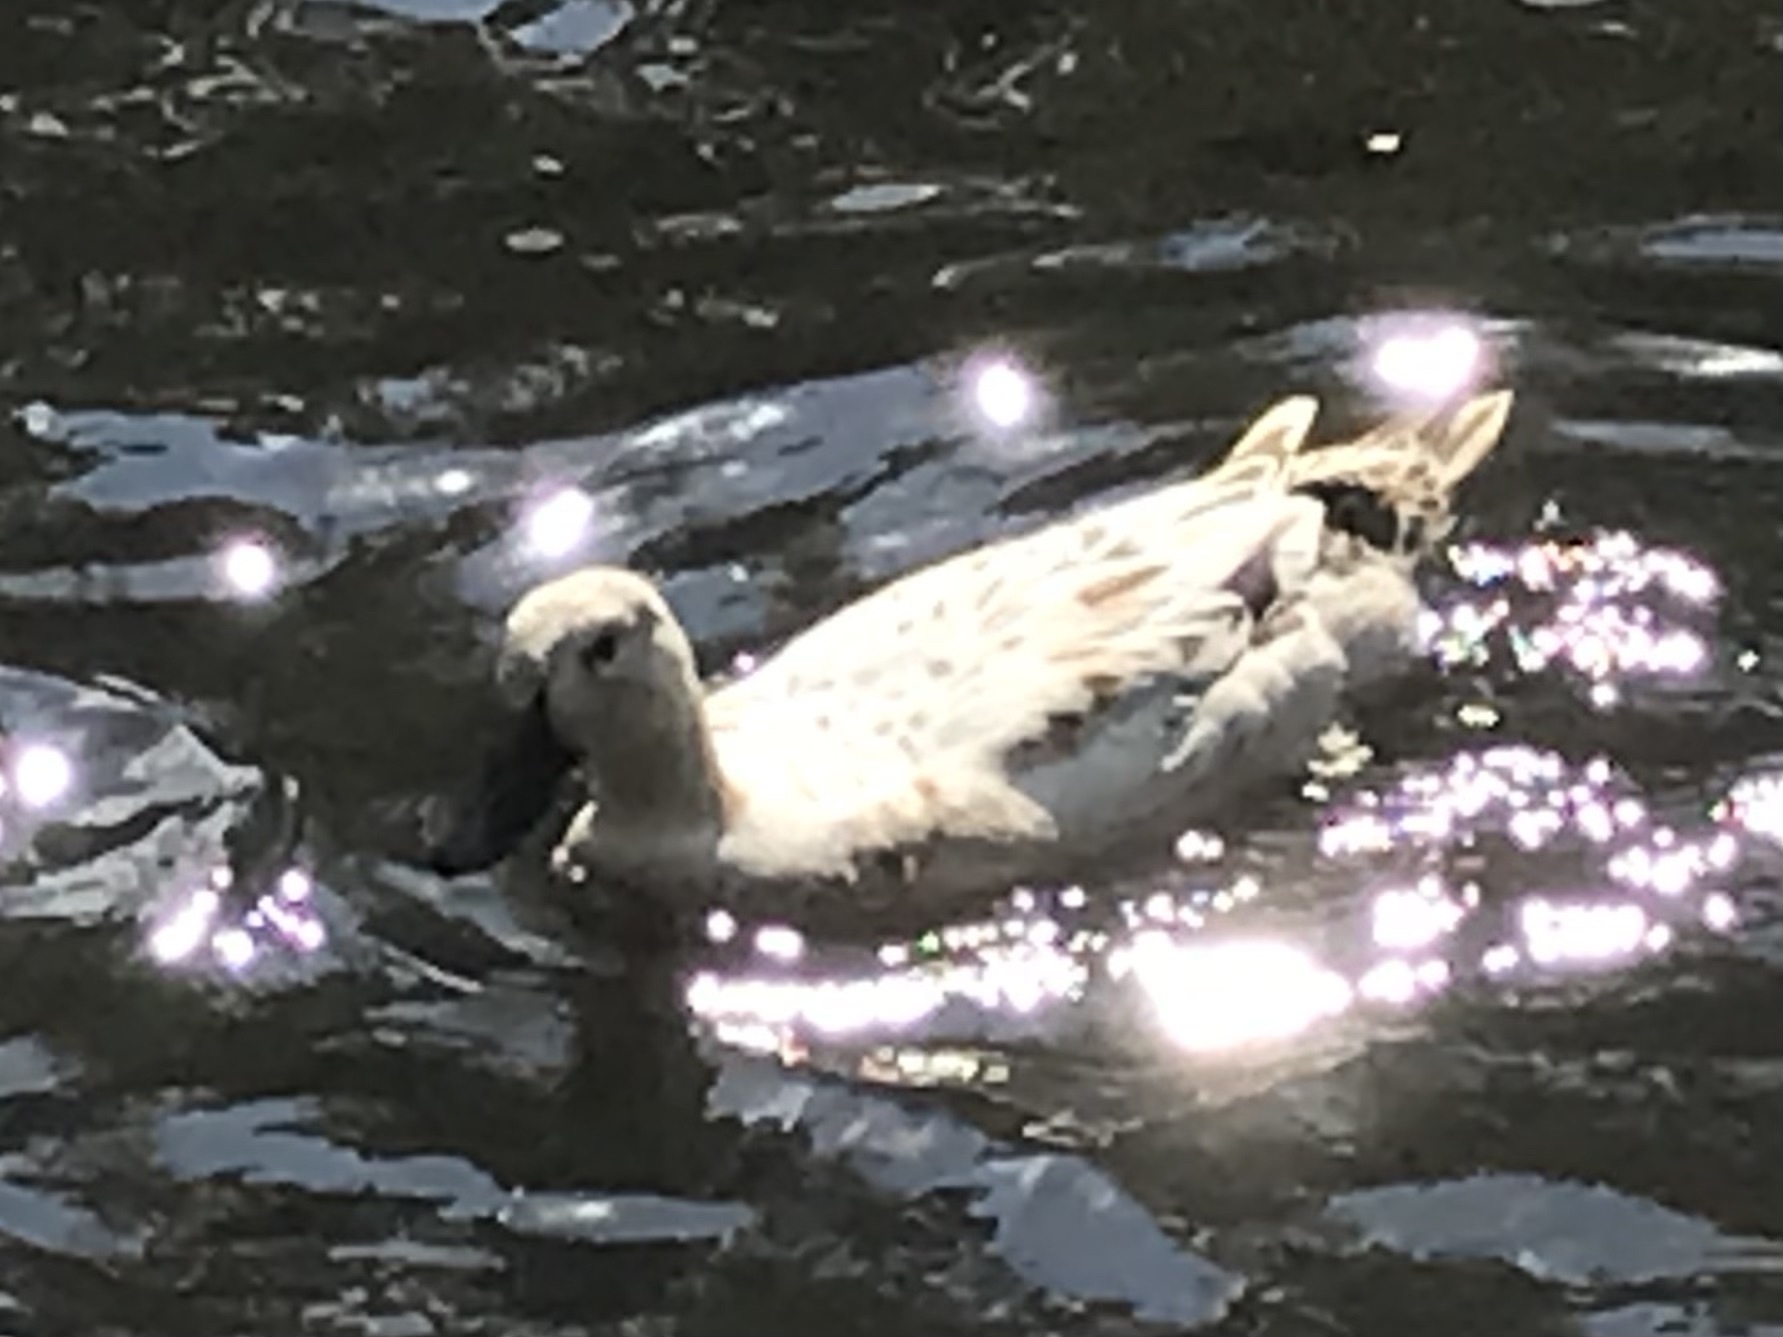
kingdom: Animalia
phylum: Chordata
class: Aves
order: Anseriformes
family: Anatidae
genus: Anas
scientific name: Anas platyrhynchos
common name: Mallard
